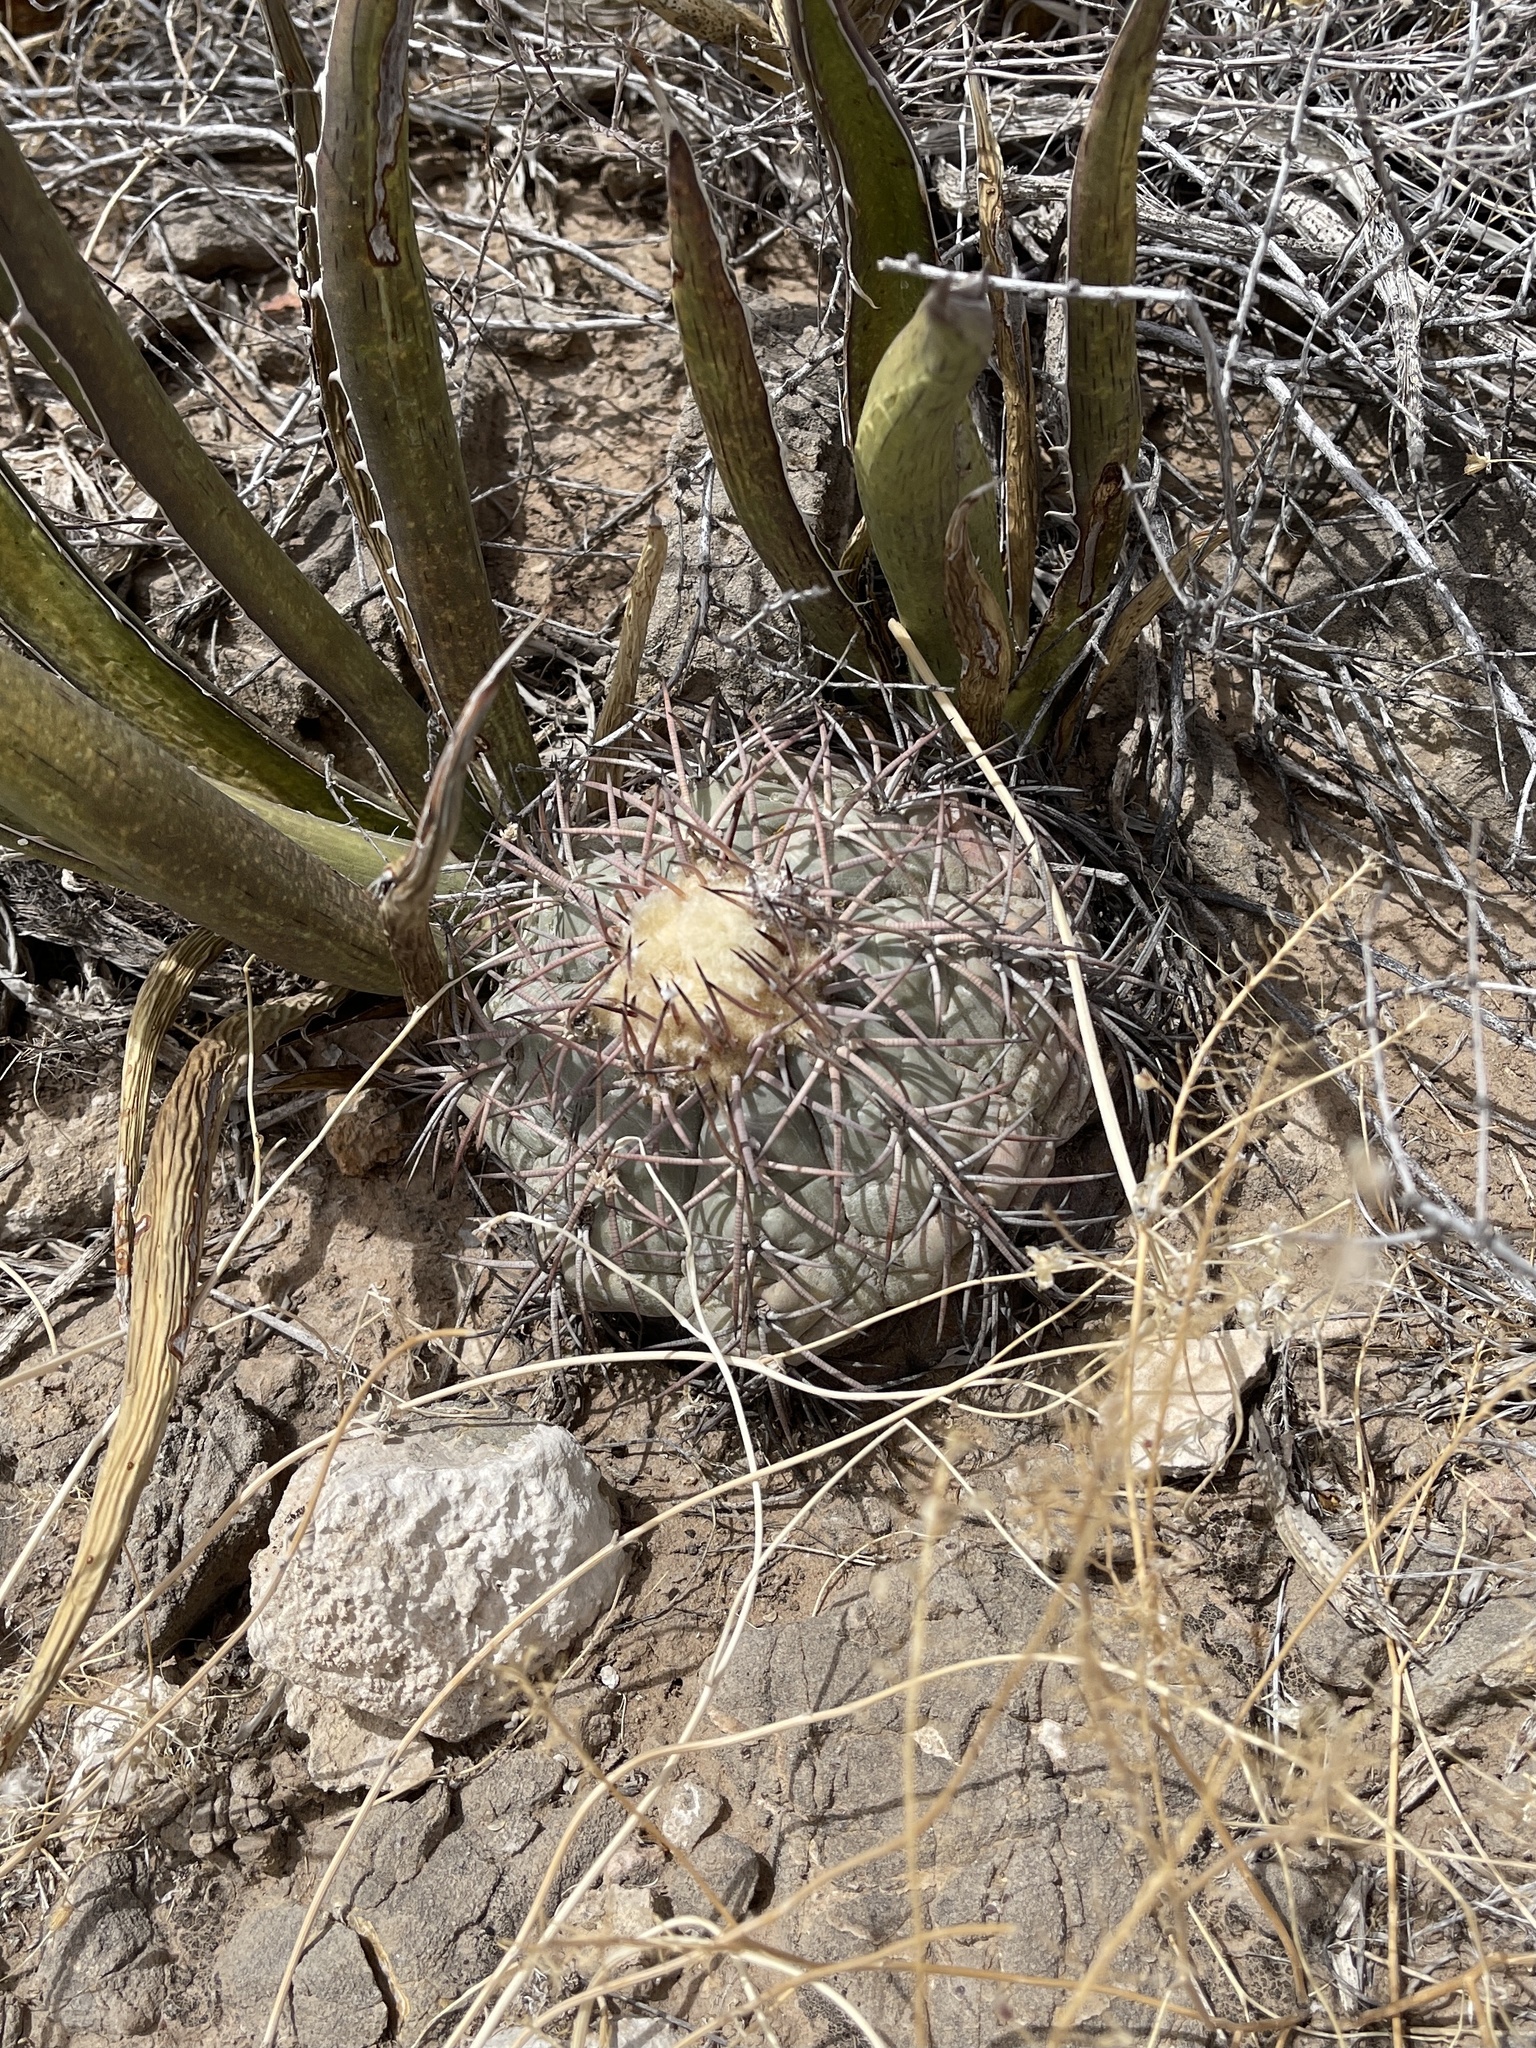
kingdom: Plantae
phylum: Tracheophyta
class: Magnoliopsida
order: Caryophyllales
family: Cactaceae
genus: Echinocactus
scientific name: Echinocactus horizonthalonius
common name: Devilshead
